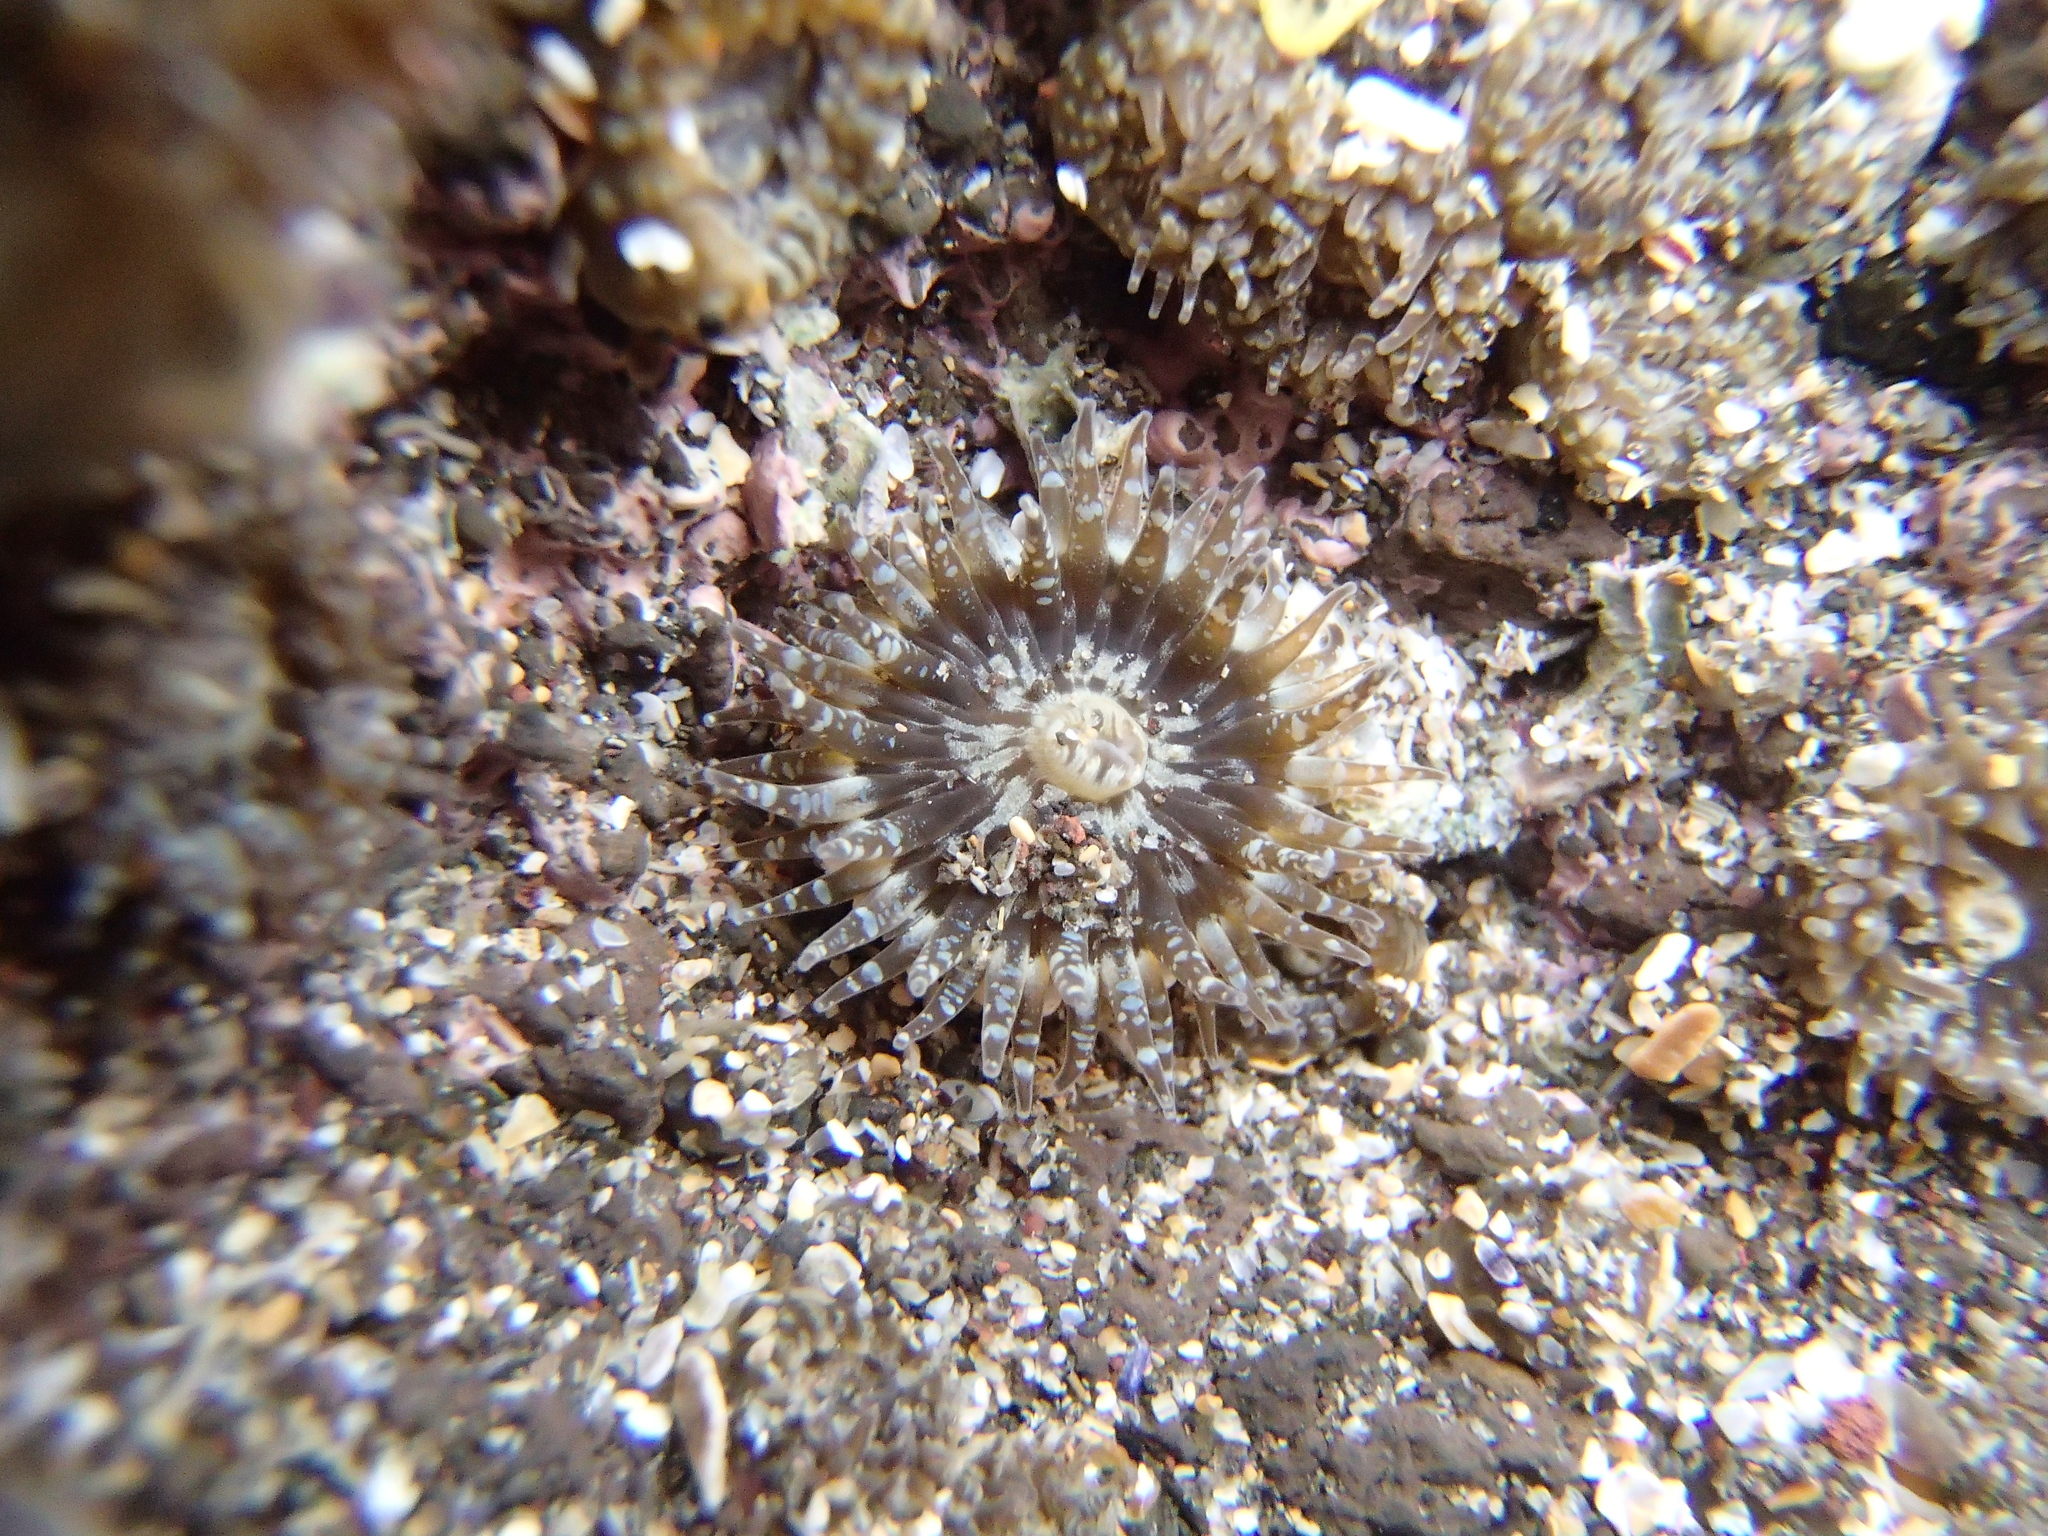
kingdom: Animalia
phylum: Cnidaria
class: Anthozoa
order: Actiniaria
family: Actiniidae
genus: Anthopleura
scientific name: Anthopleura hermaphroditica
